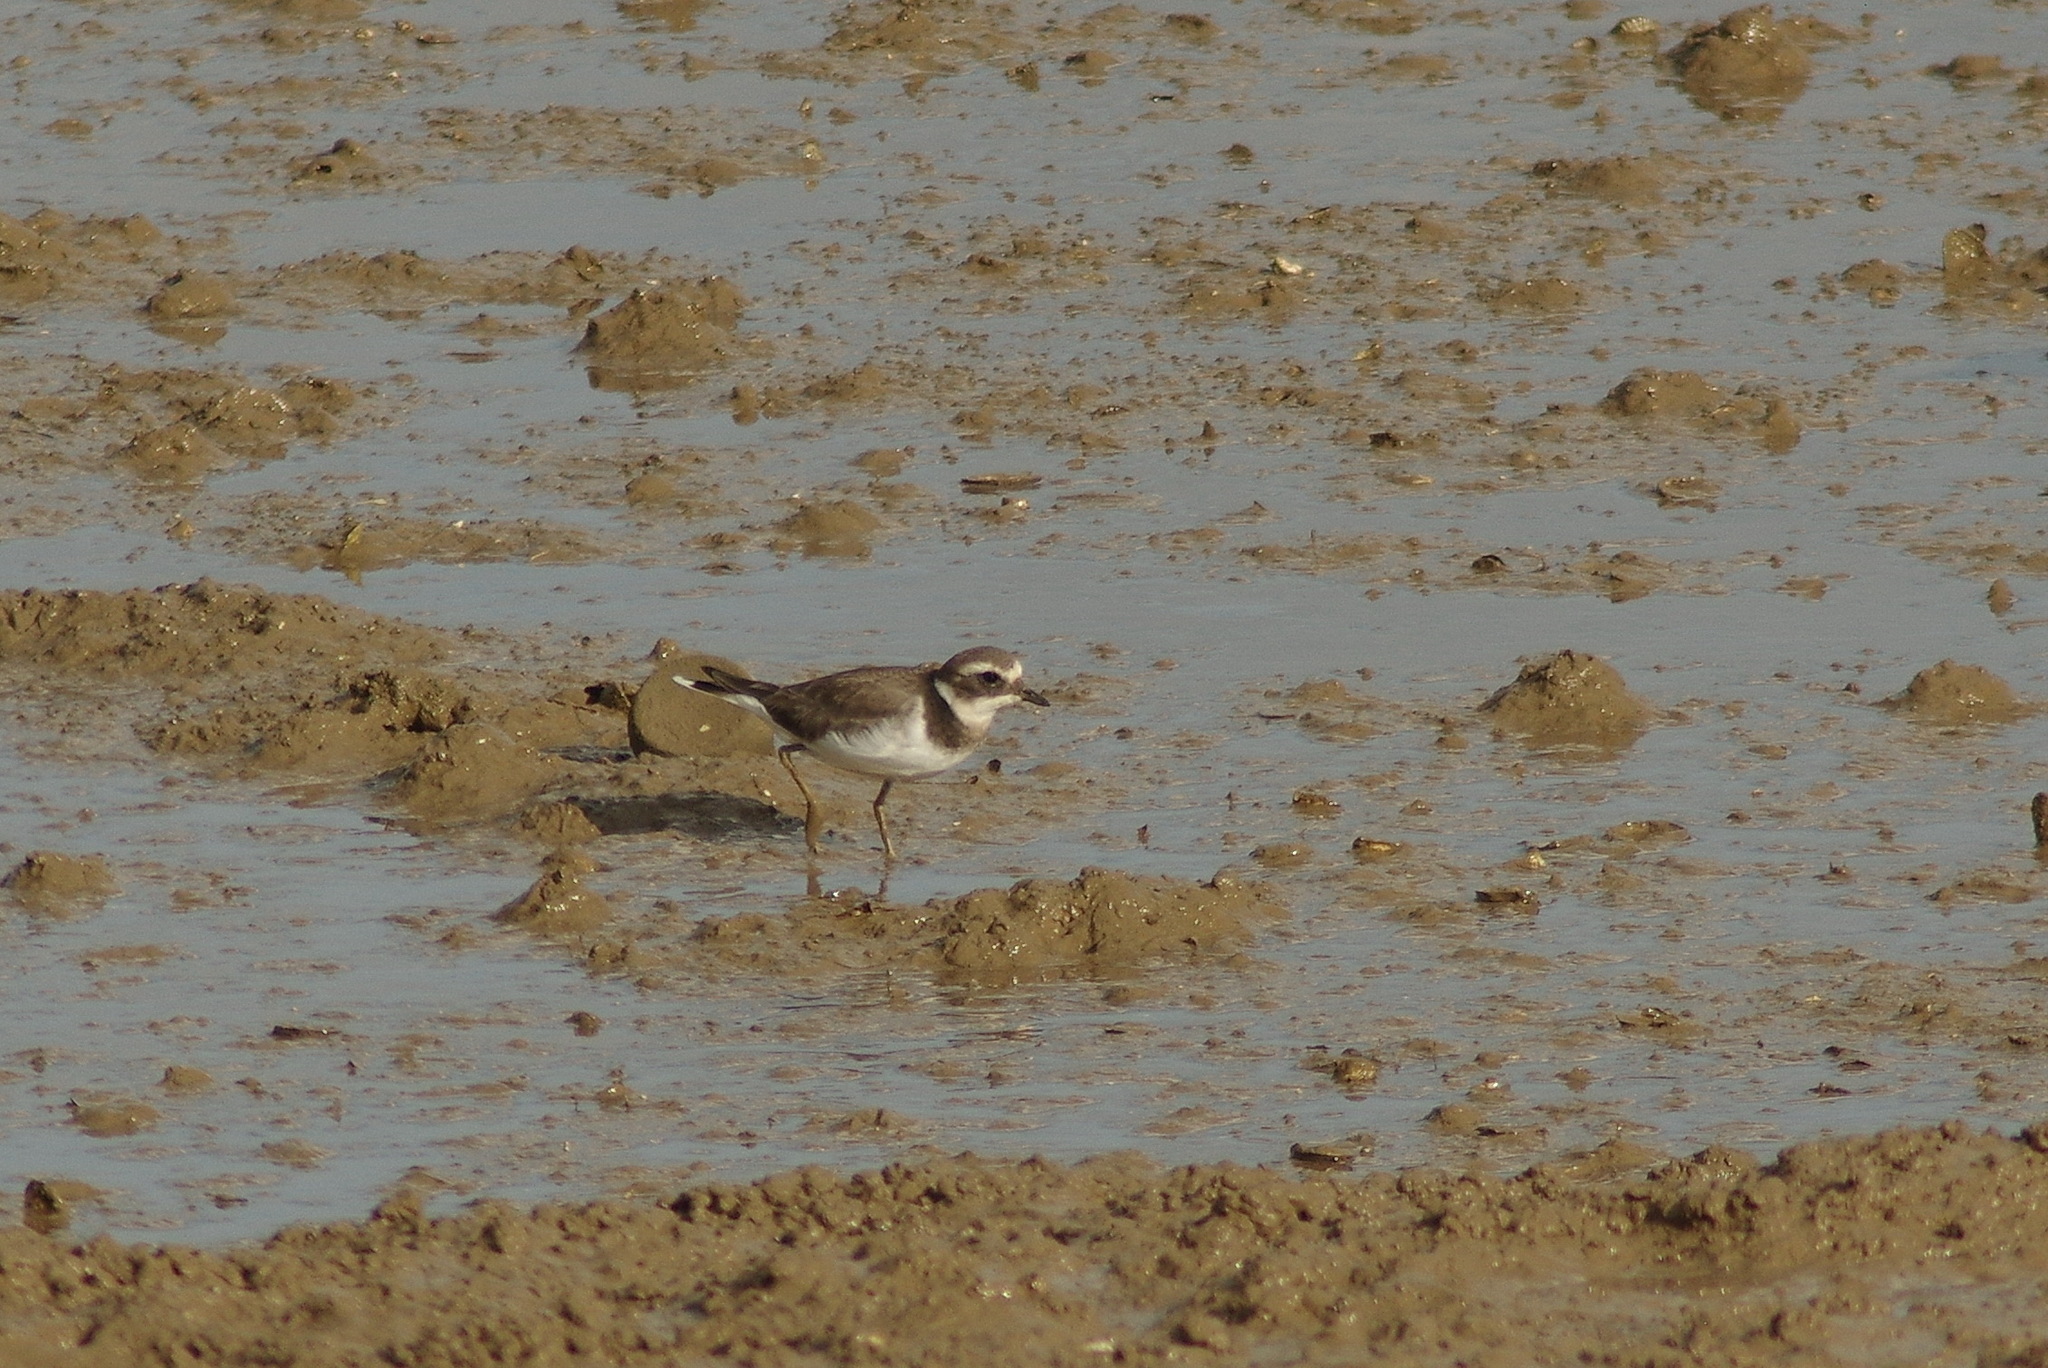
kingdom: Animalia
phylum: Chordata
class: Aves
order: Charadriiformes
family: Charadriidae
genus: Charadrius
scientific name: Charadrius hiaticula
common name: Common ringed plover
